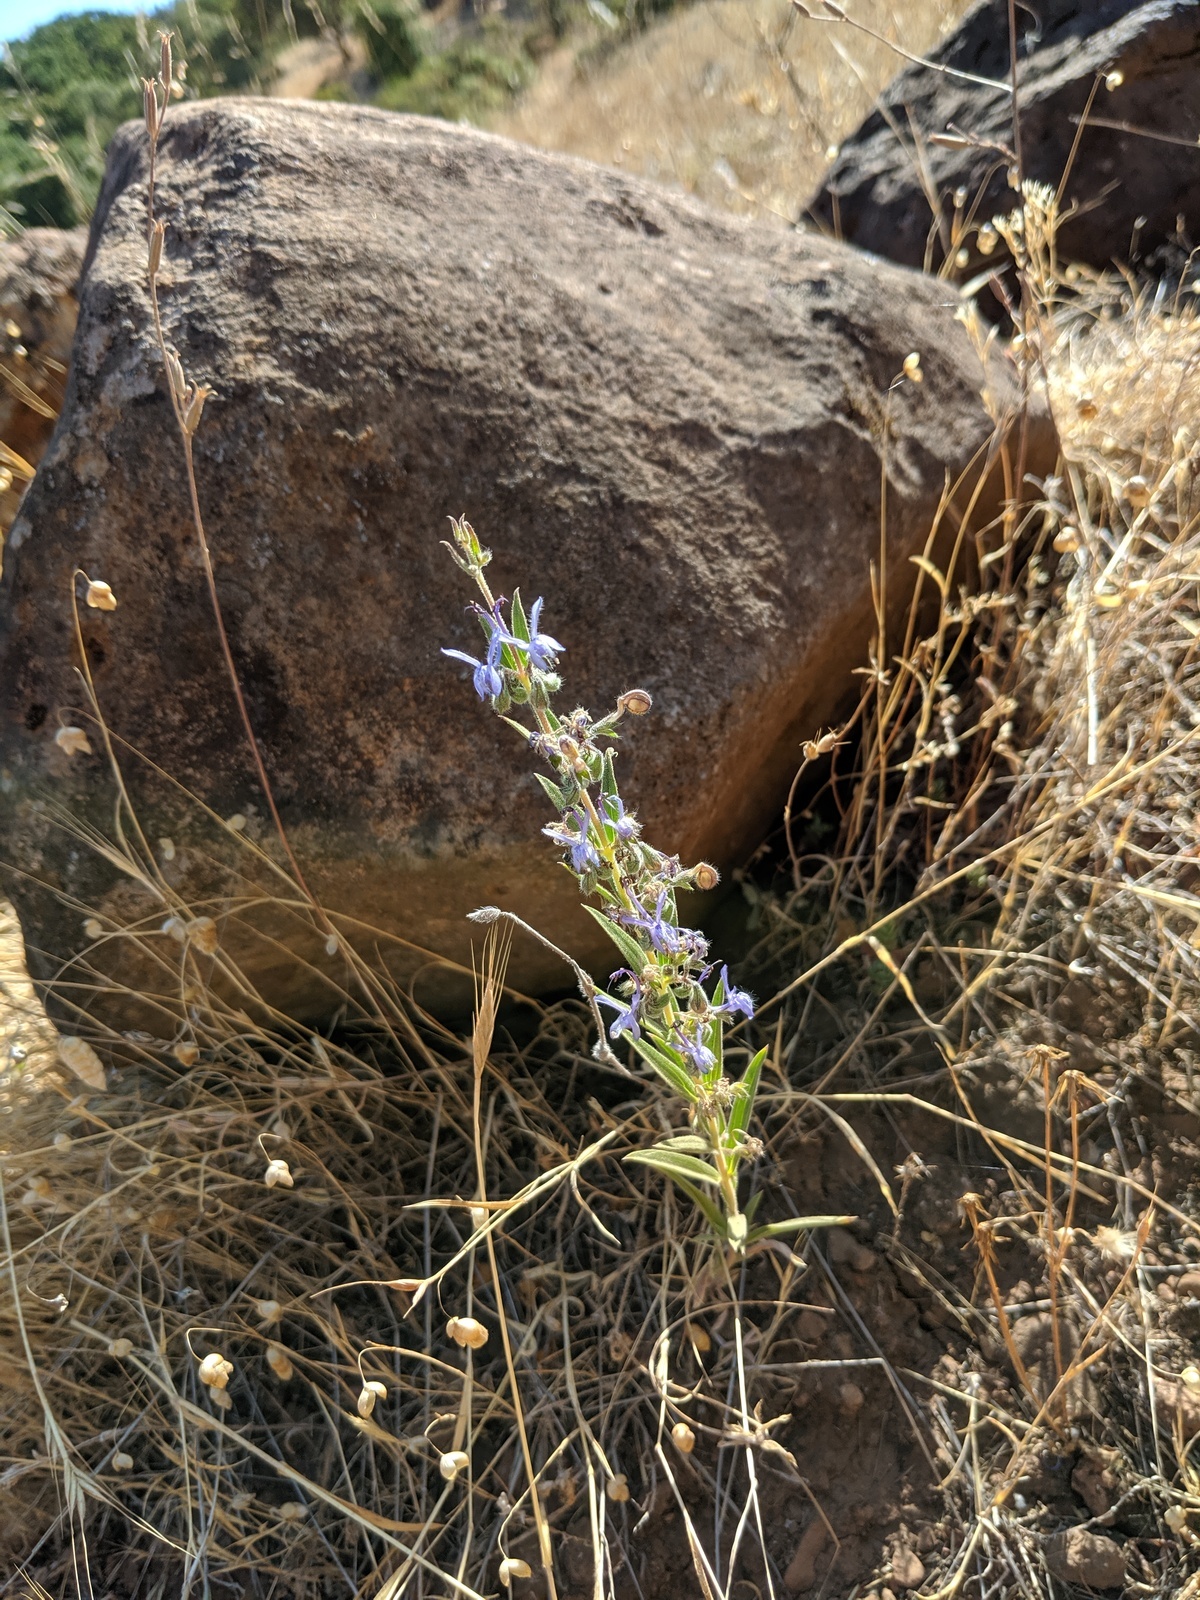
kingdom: Plantae
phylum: Tracheophyta
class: Magnoliopsida
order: Lamiales
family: Lamiaceae
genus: Trichostema
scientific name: Trichostema lanceolatum
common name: Vinegar-weed
